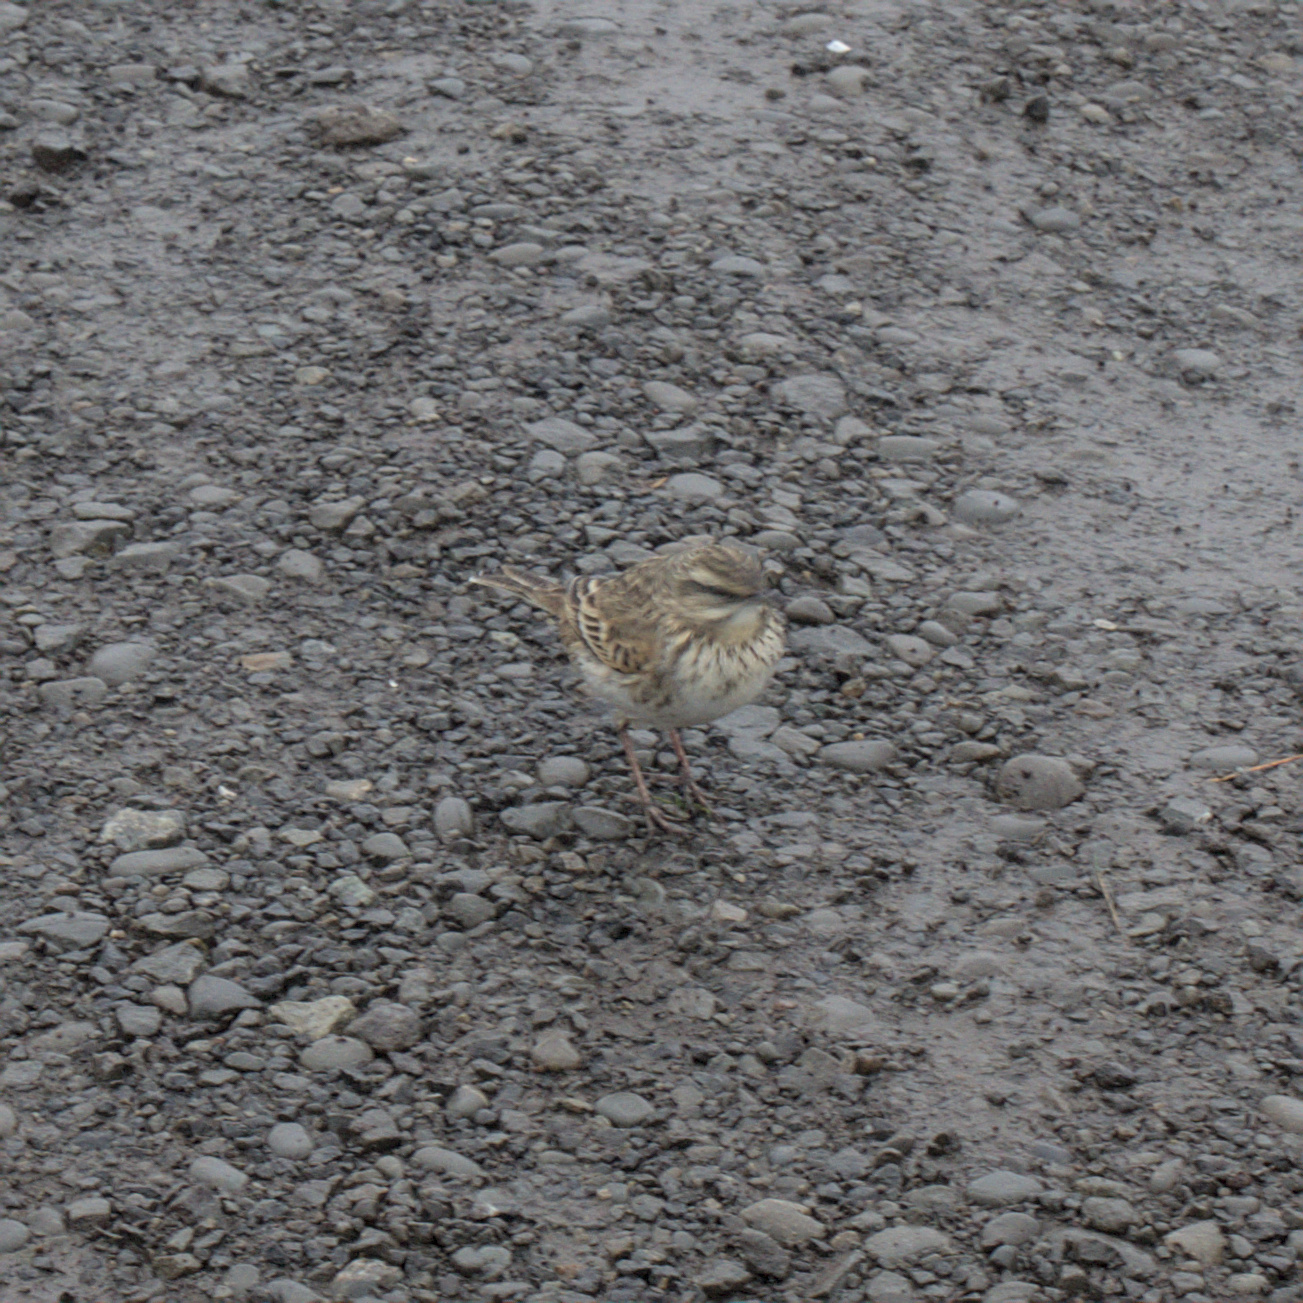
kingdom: Animalia
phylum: Chordata
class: Aves
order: Passeriformes
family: Motacillidae
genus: Anthus
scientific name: Anthus novaeseelandiae
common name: New zealand pipit
